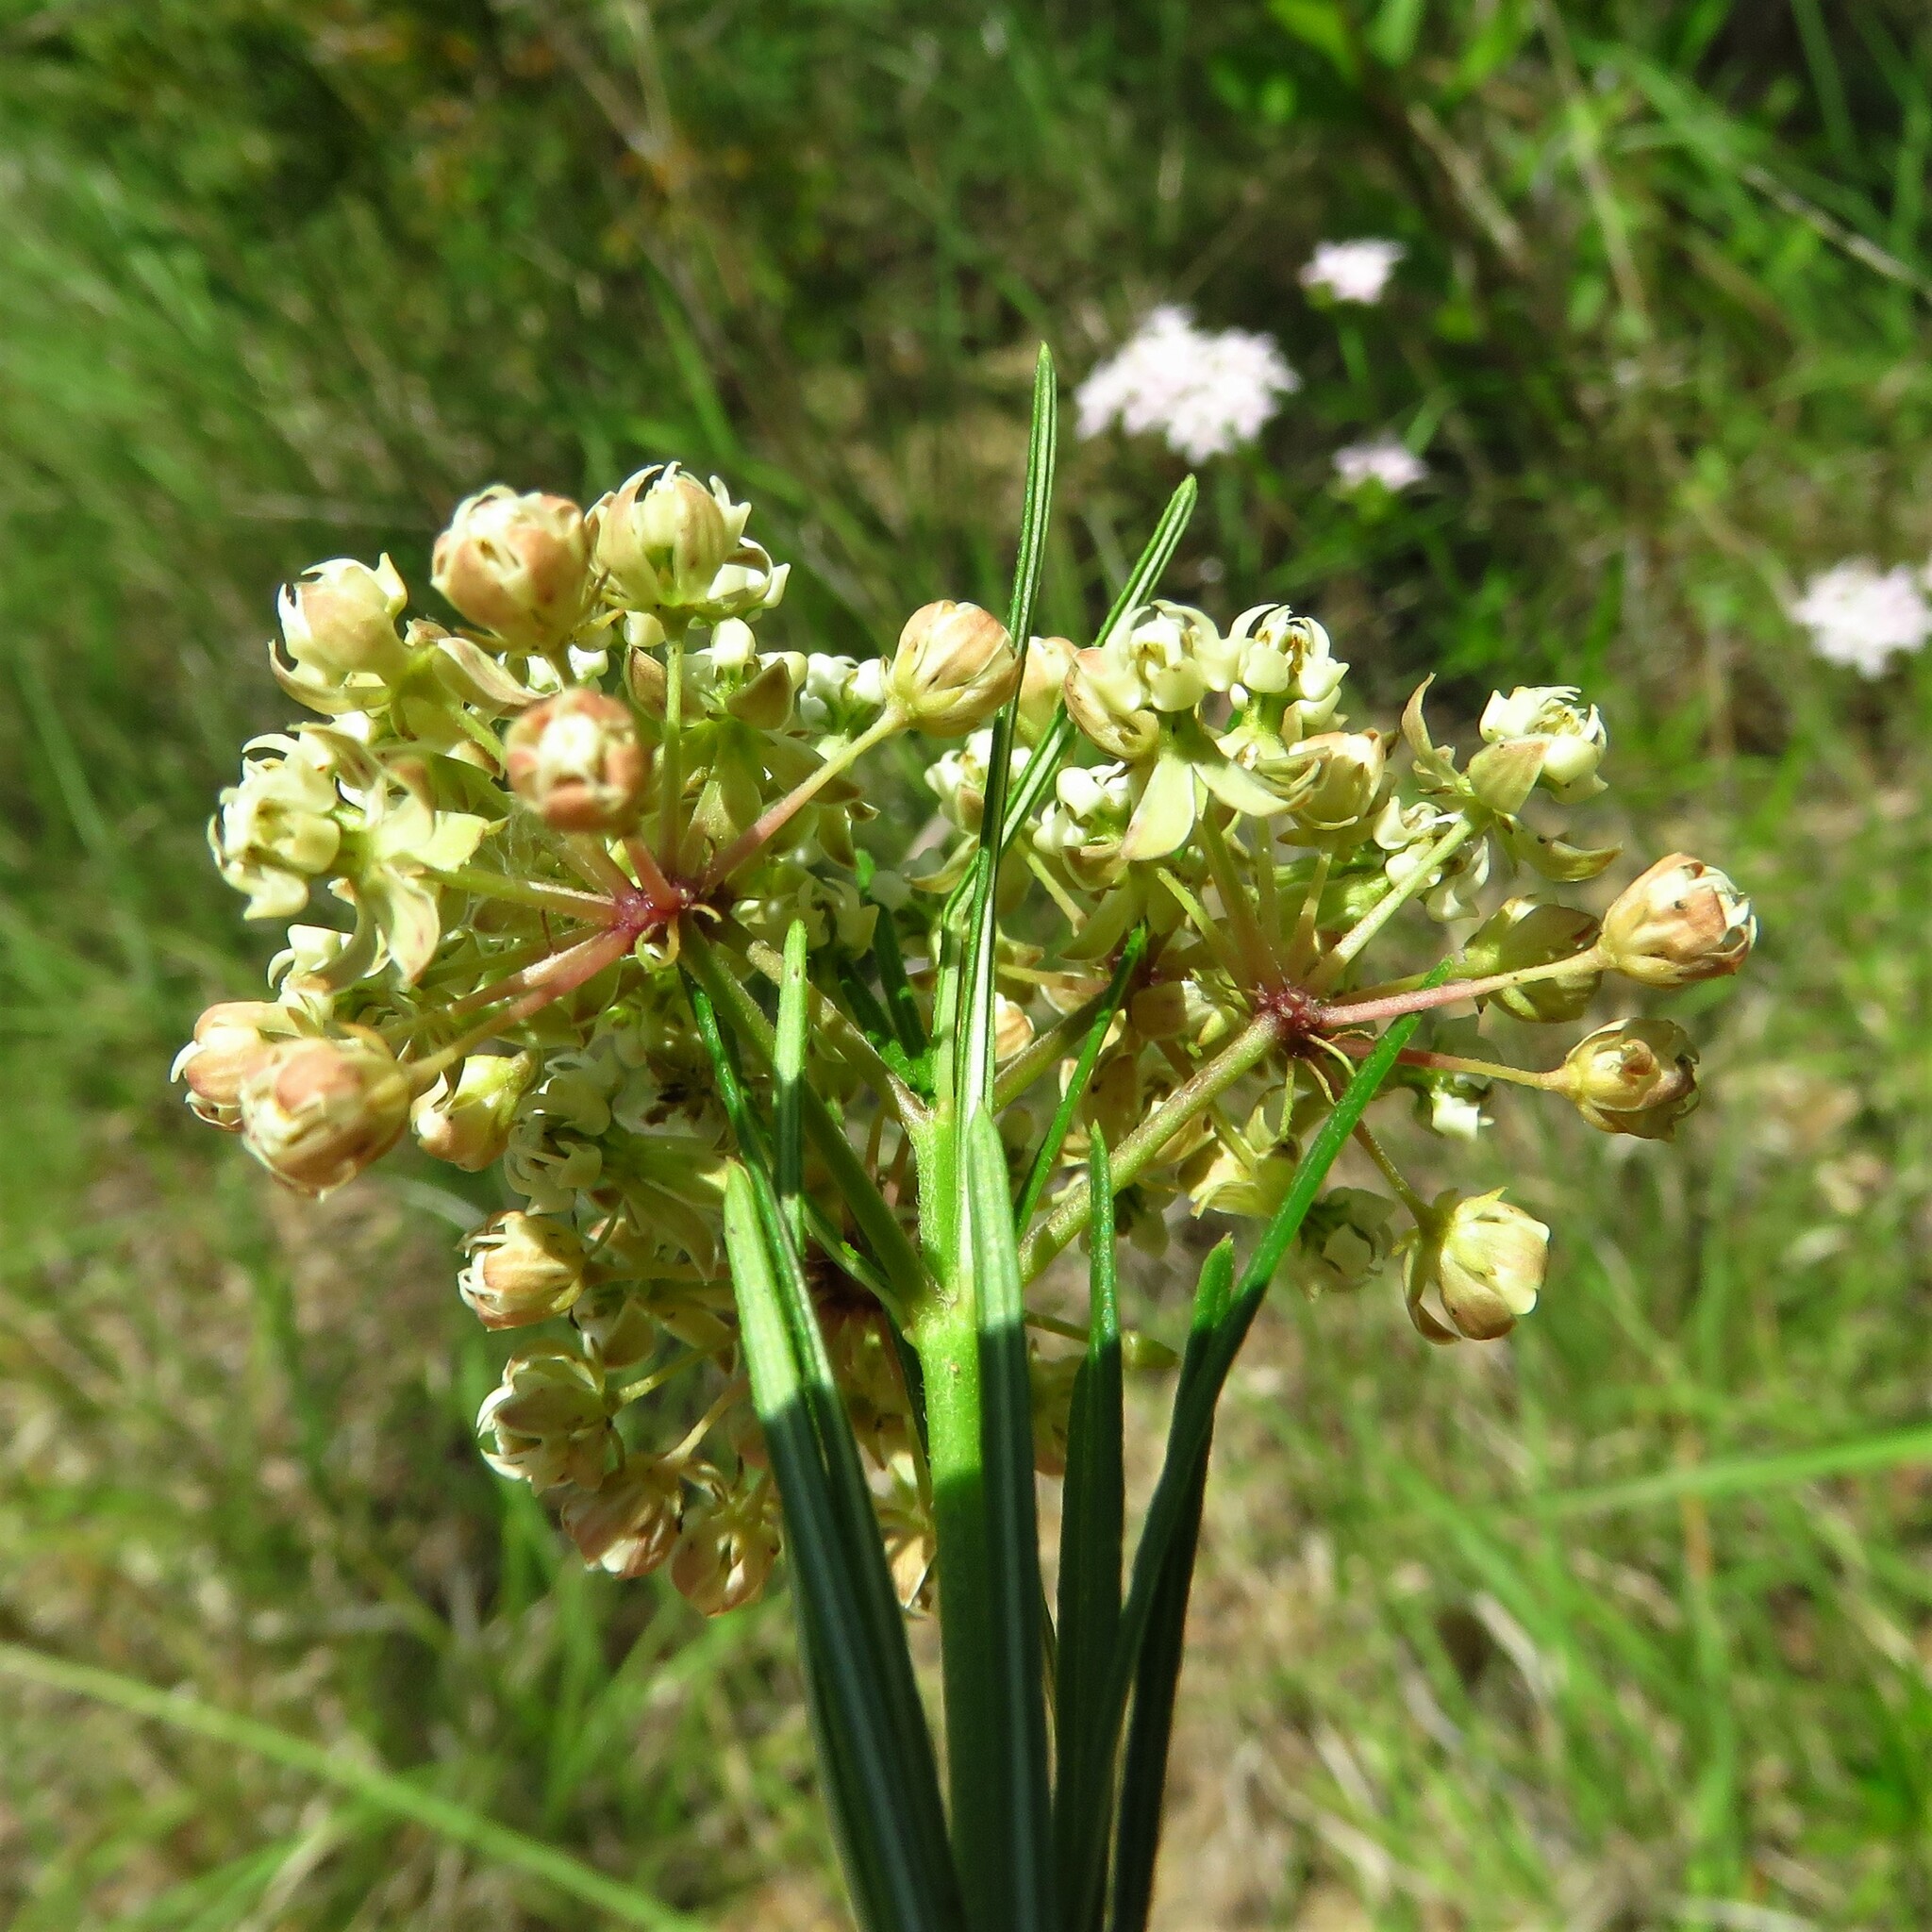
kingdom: Plantae
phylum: Tracheophyta
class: Magnoliopsida
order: Gentianales
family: Apocynaceae
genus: Asclepias
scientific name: Asclepias verticillata
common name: Eastern whorled milkweed
